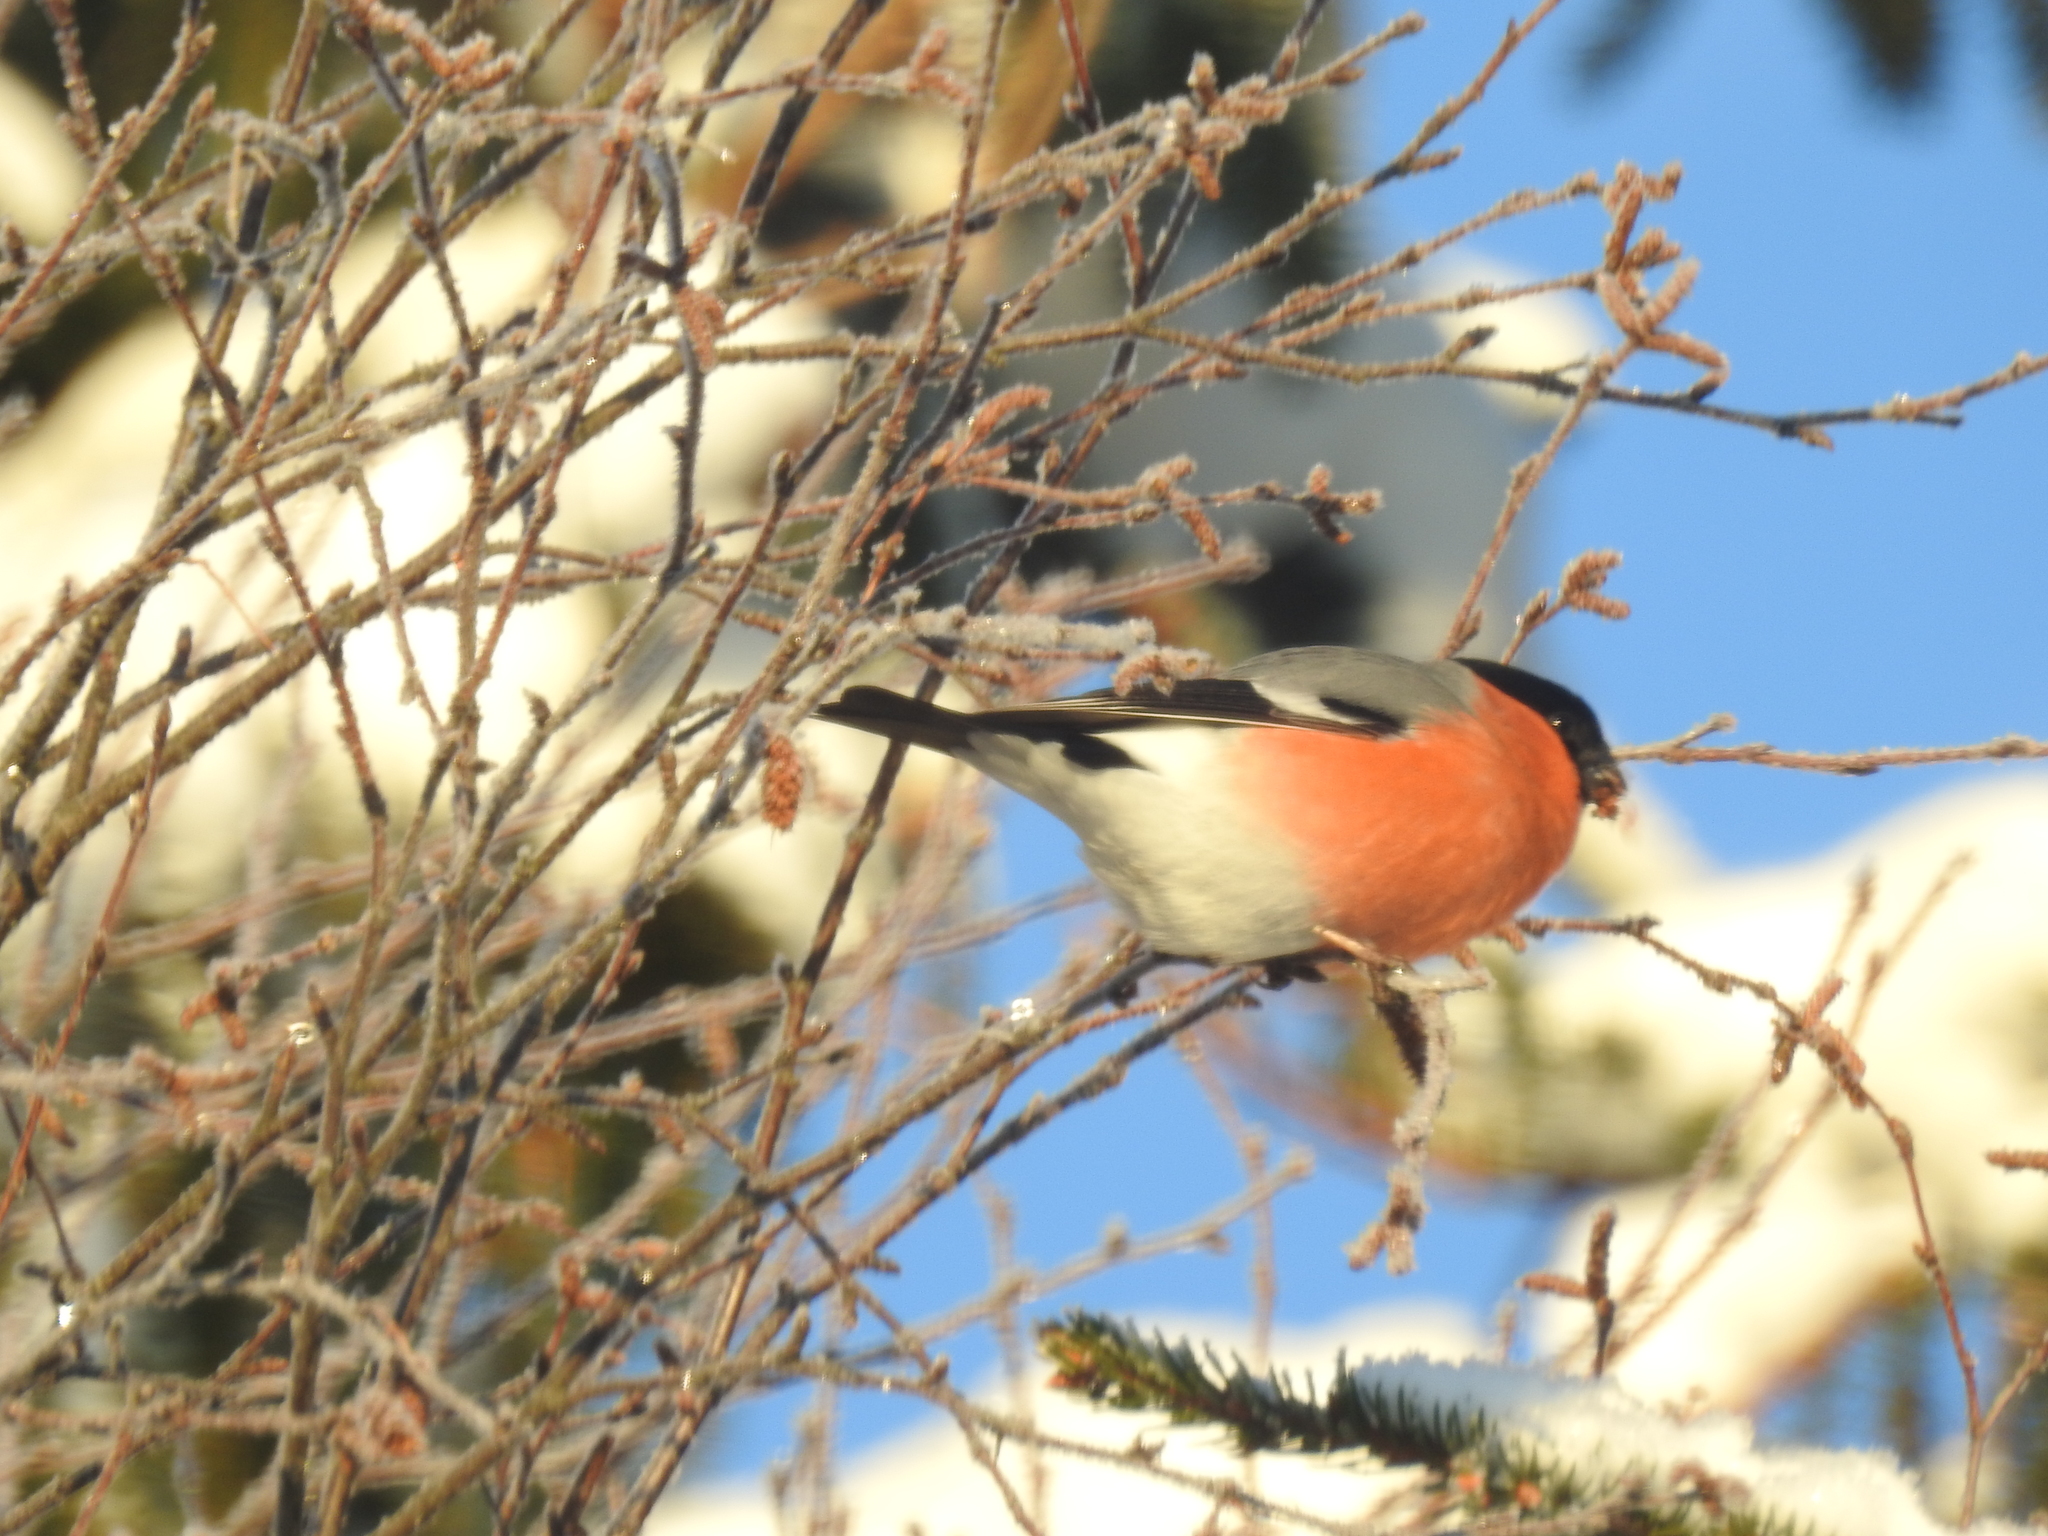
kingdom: Animalia
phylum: Chordata
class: Aves
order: Passeriformes
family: Fringillidae
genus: Pyrrhula
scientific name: Pyrrhula pyrrhula
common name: Eurasian bullfinch
